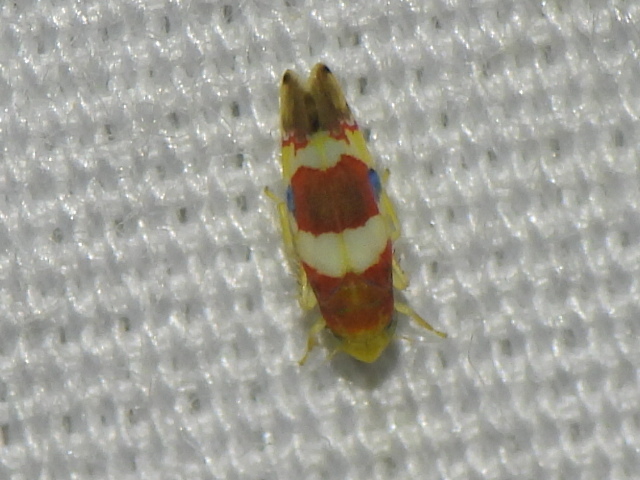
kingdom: Animalia
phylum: Arthropoda
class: Insecta
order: Hemiptera
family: Cicadellidae
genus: Erythroneura
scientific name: Erythroneura vitis
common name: Grapevine leafhopper
